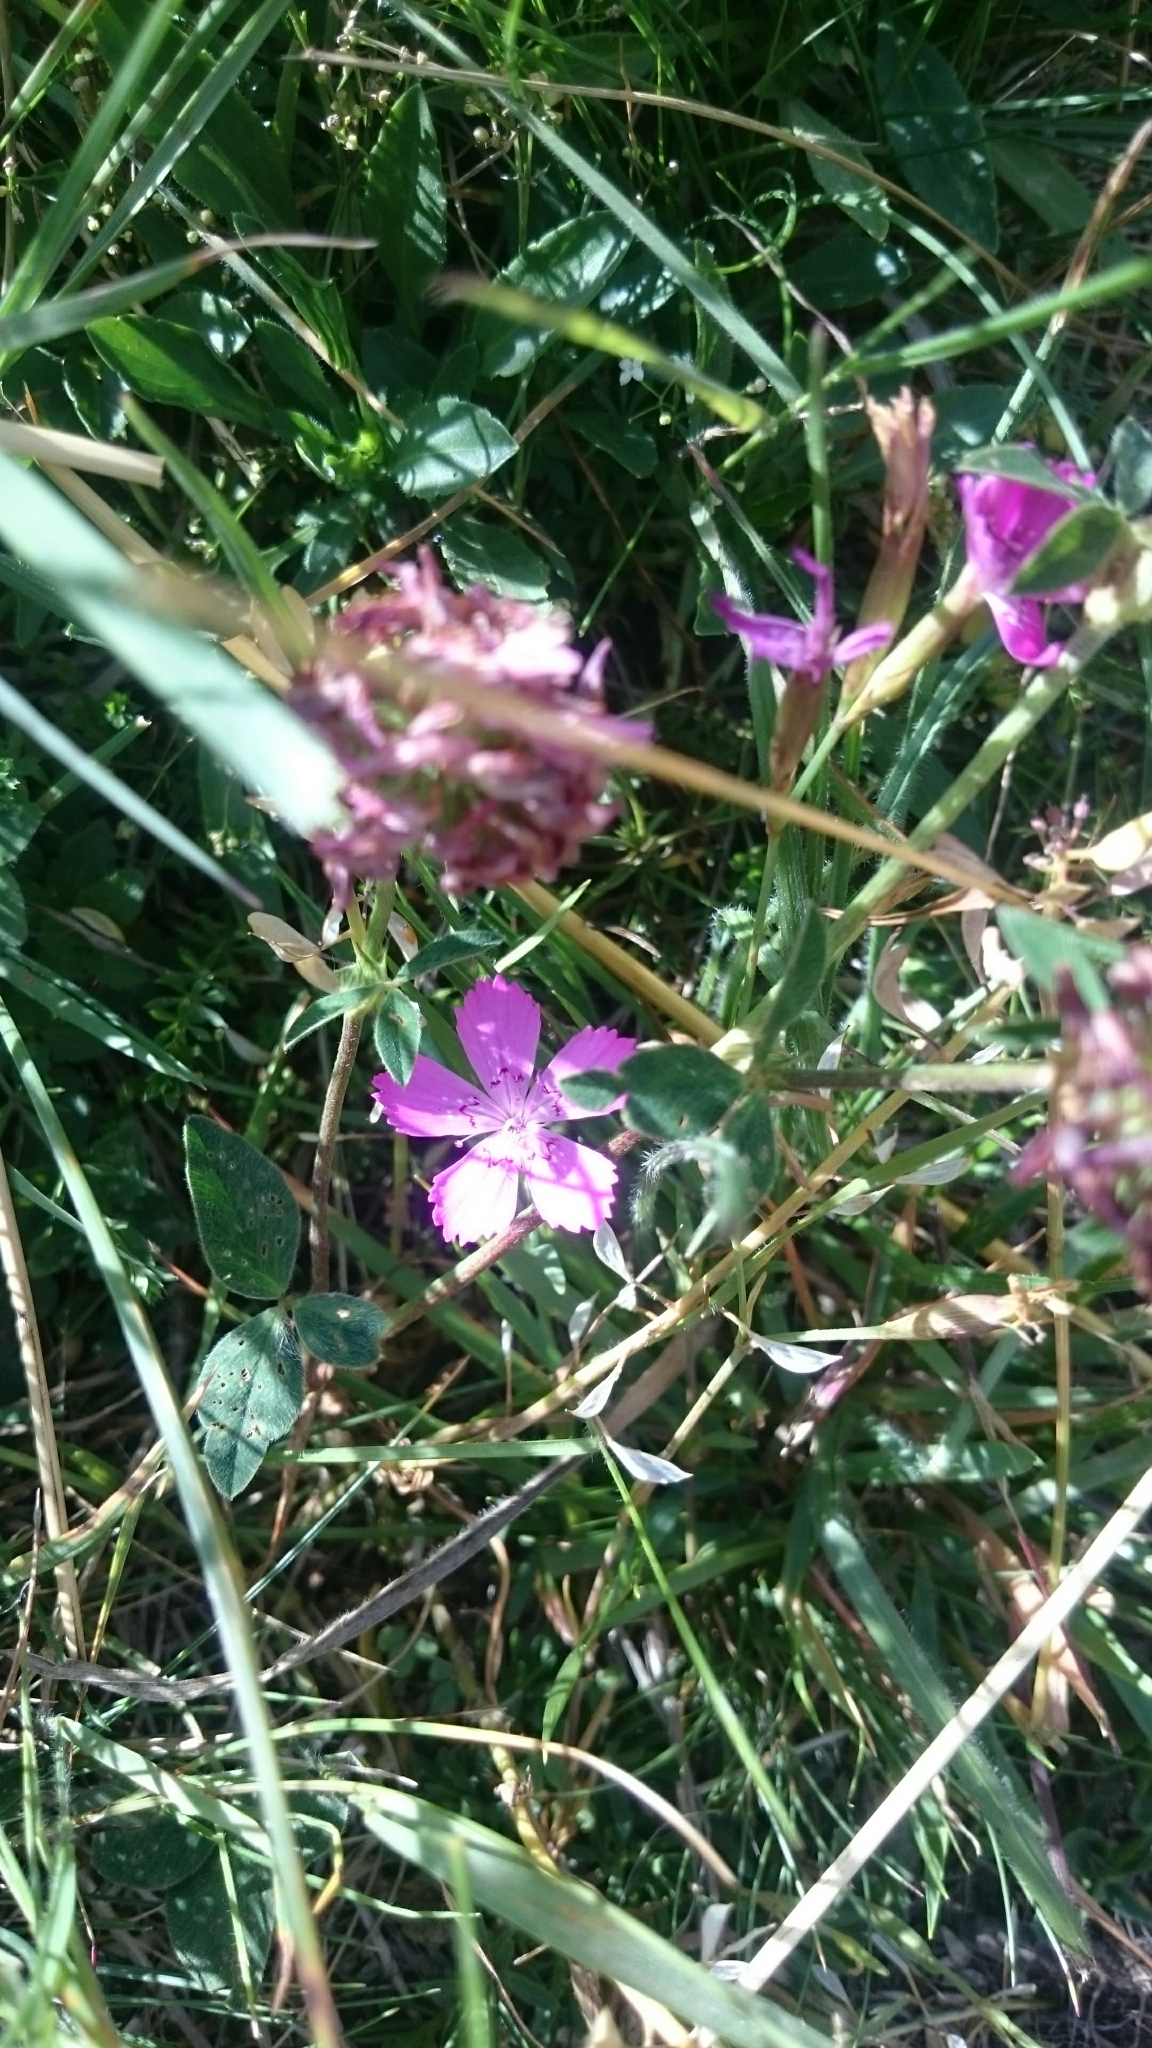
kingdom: Plantae
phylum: Tracheophyta
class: Magnoliopsida
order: Caryophyllales
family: Caryophyllaceae
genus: Dianthus
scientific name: Dianthus deltoides
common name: Maiden pink
